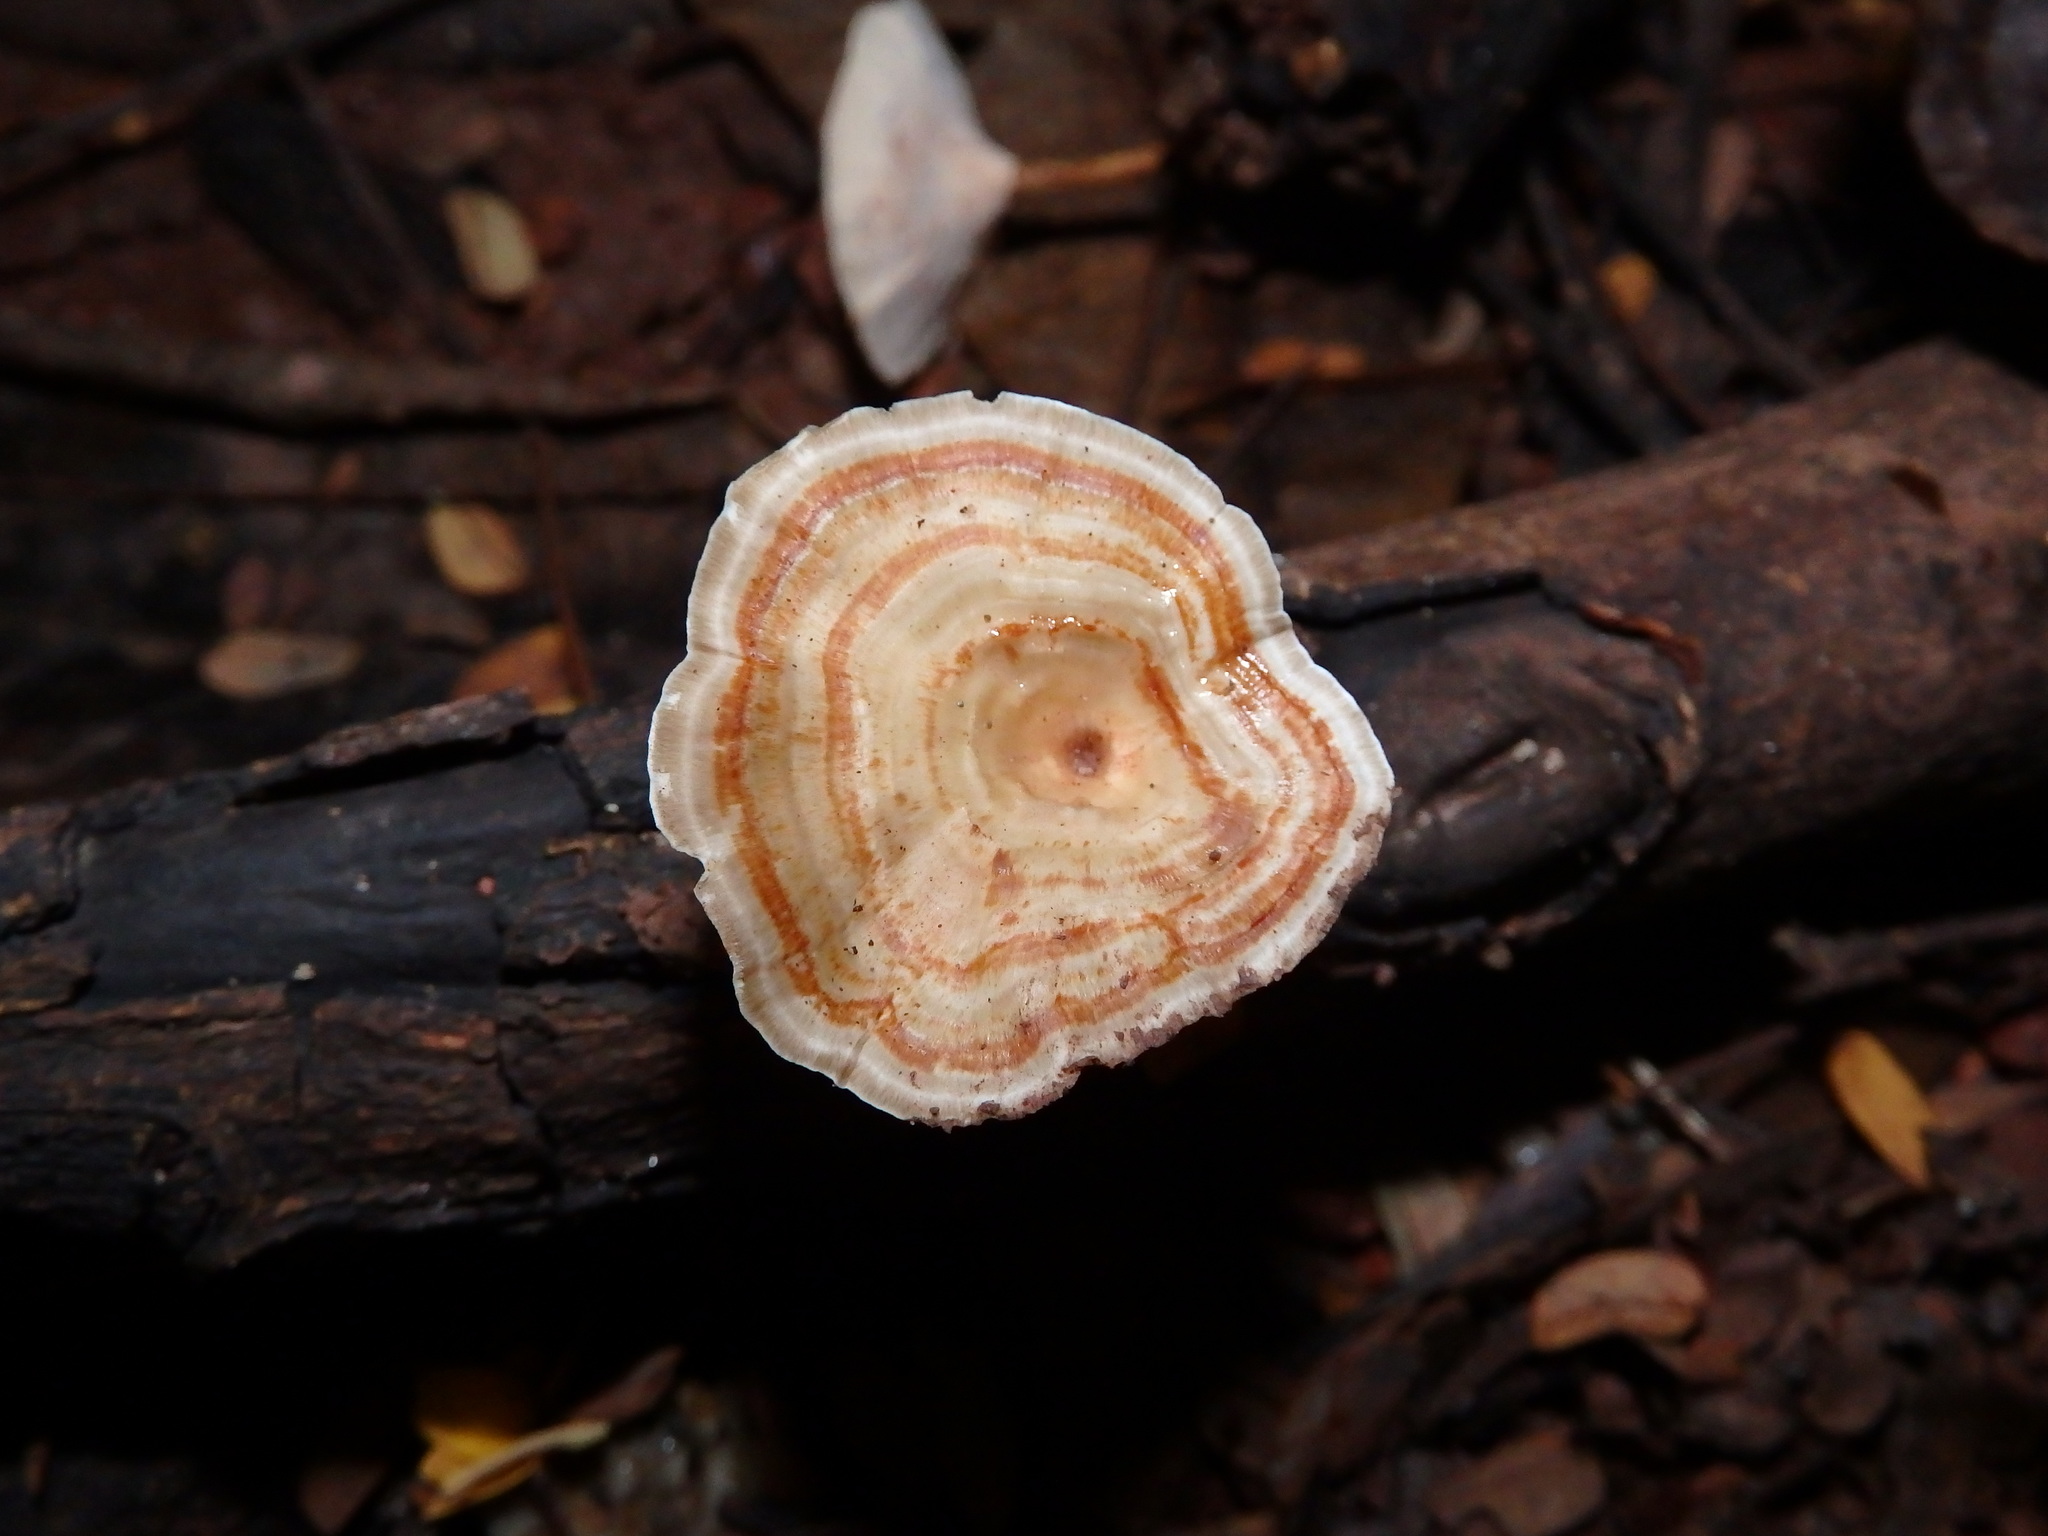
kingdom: Fungi
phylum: Basidiomycota
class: Agaricomycetes
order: Polyporales
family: Polyporaceae
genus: Microporus
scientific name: Microporus xanthopus
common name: Yellow-stemmed micropore
